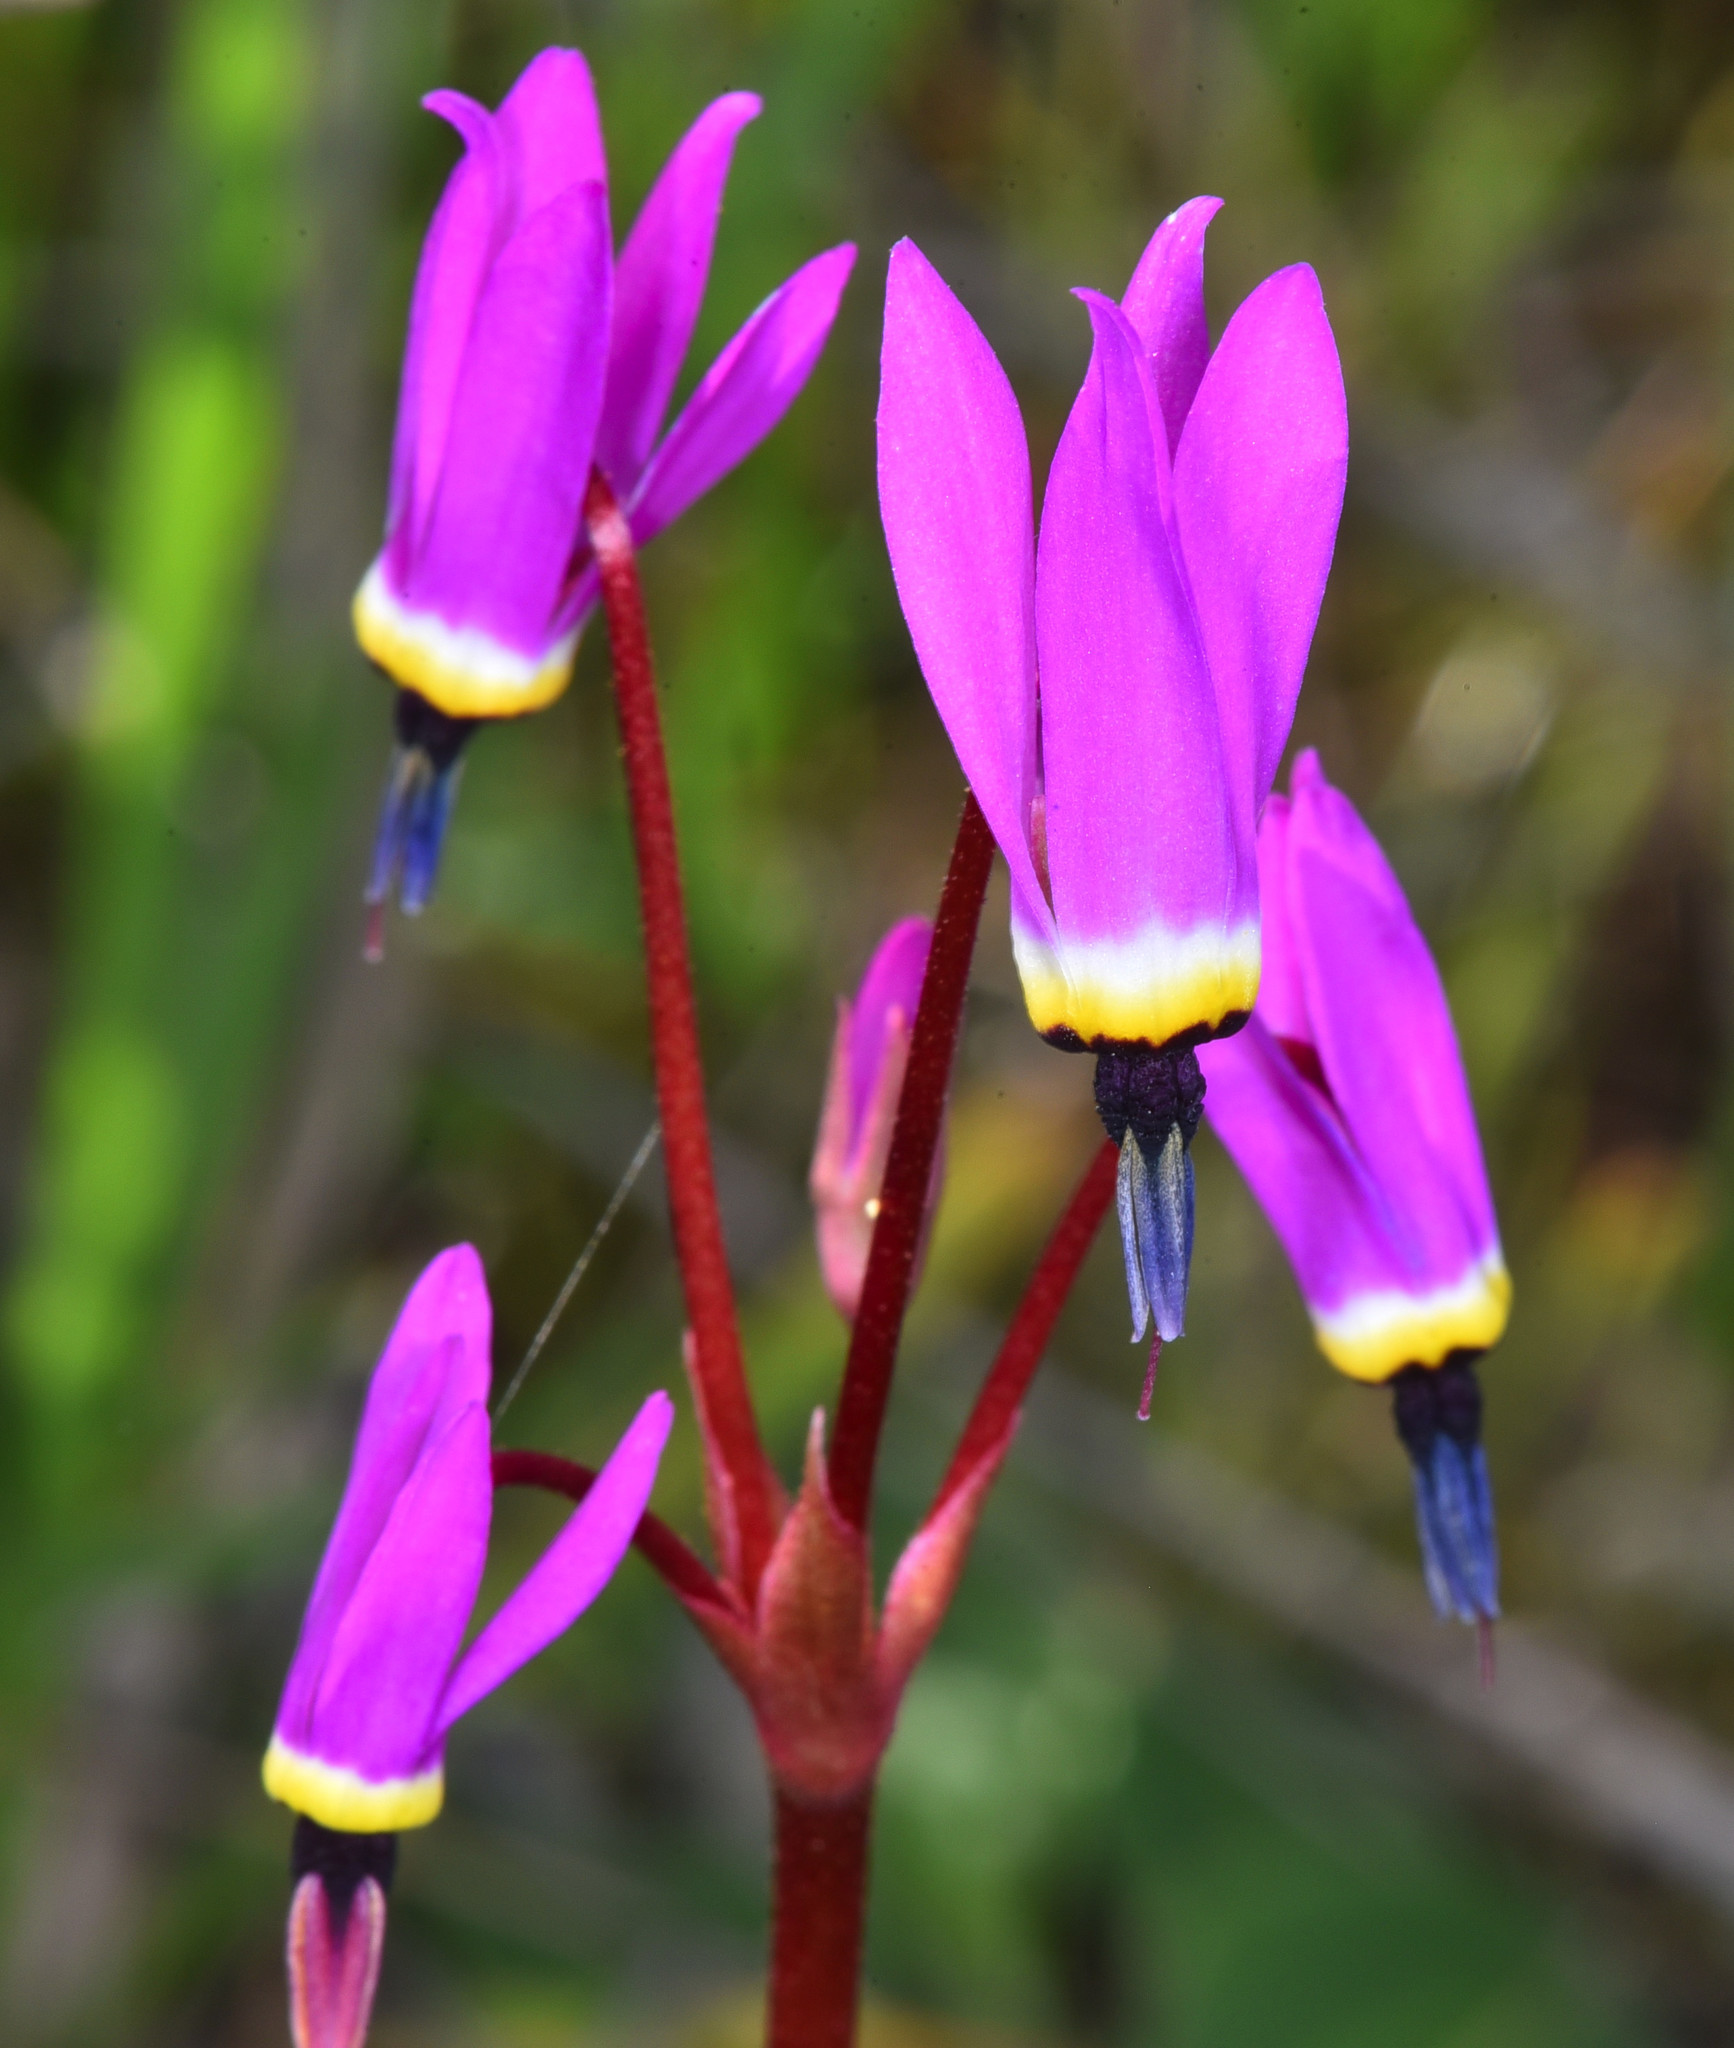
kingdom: Plantae
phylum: Tracheophyta
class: Magnoliopsida
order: Ericales
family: Primulaceae
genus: Dodecatheon
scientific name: Dodecatheon hendersonii
